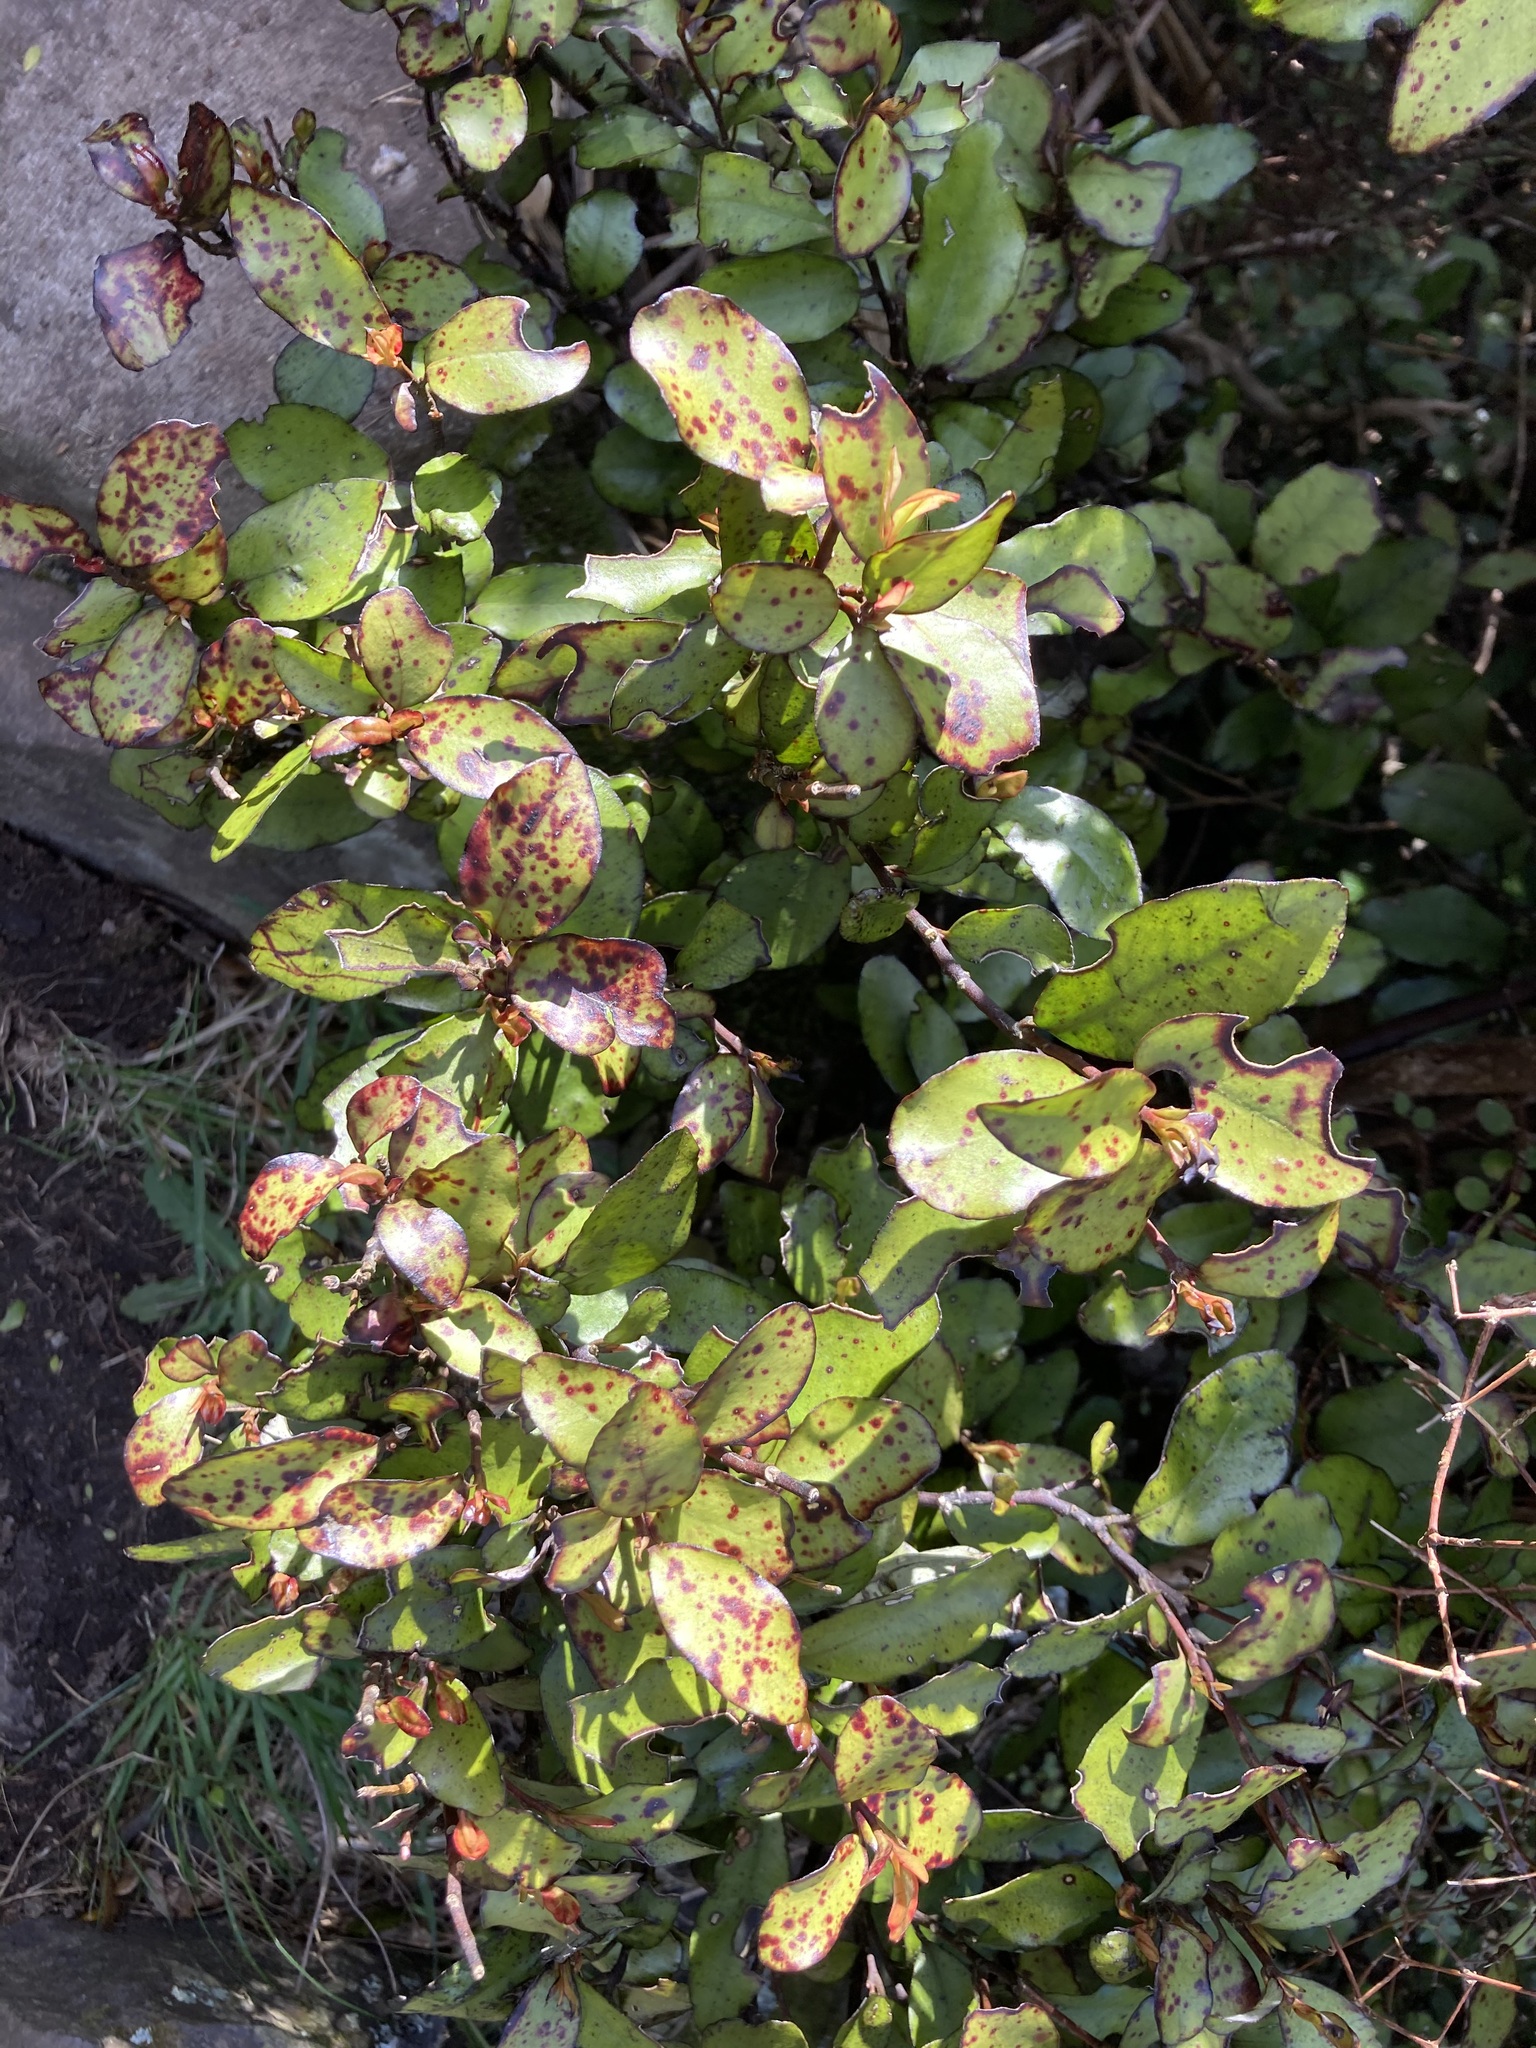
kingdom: Plantae
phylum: Tracheophyta
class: Magnoliopsida
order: Canellales
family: Winteraceae
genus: Pseudowintera
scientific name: Pseudowintera colorata
